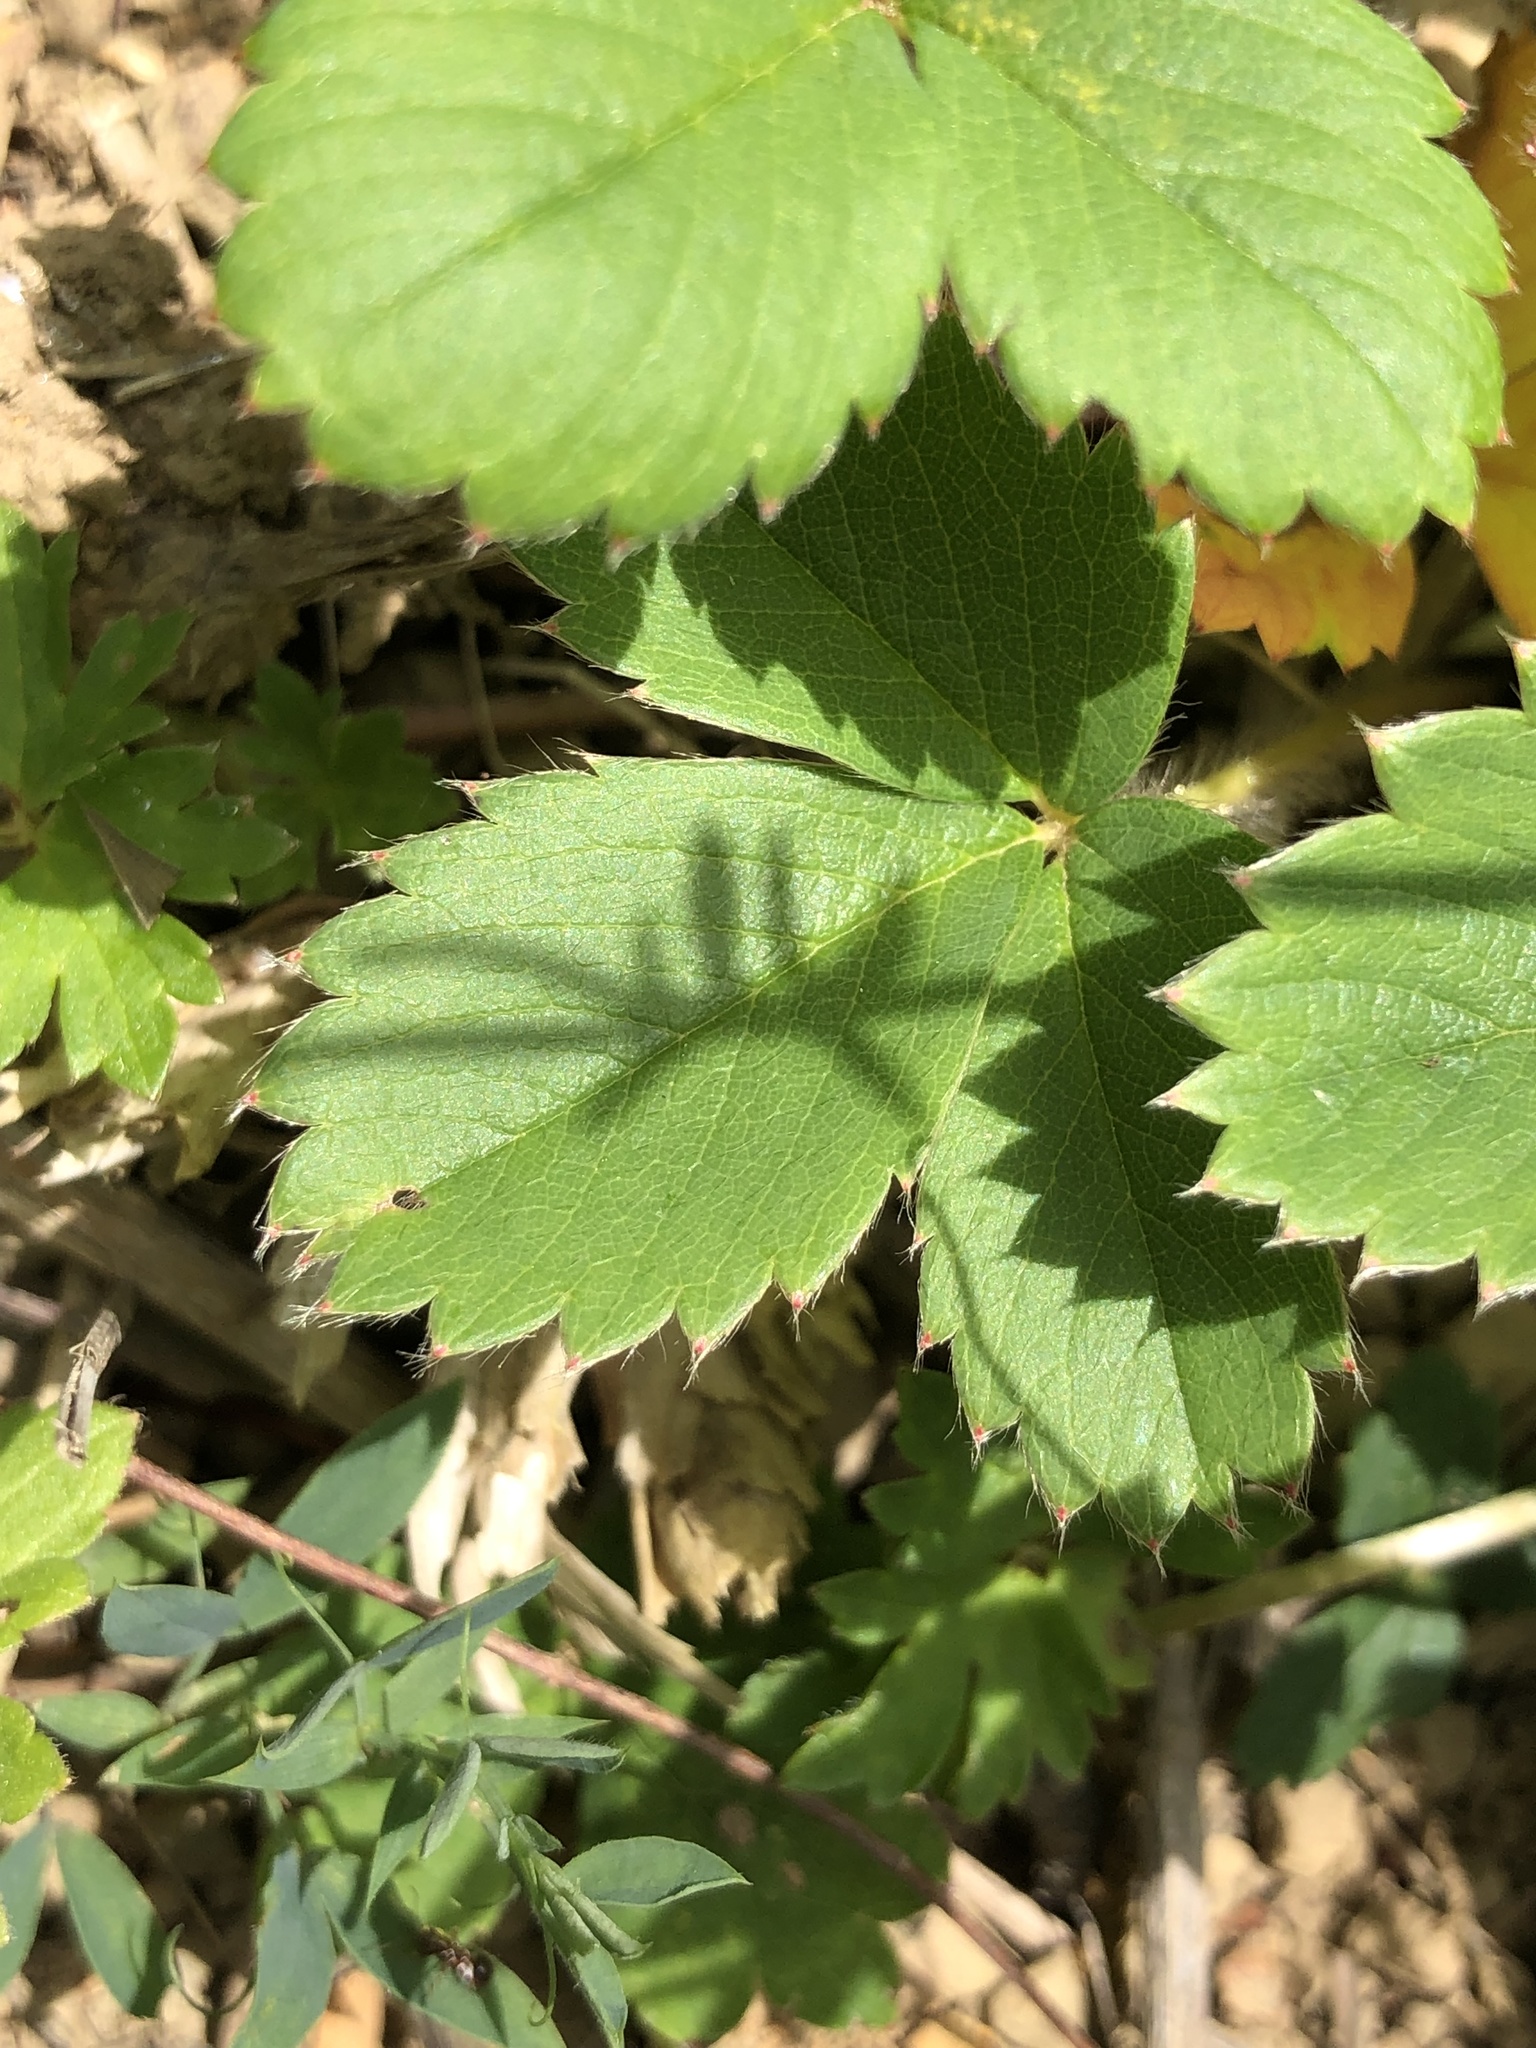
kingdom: Plantae
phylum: Tracheophyta
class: Magnoliopsida
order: Rosales
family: Rosaceae
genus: Fragaria
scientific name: Fragaria viridis
